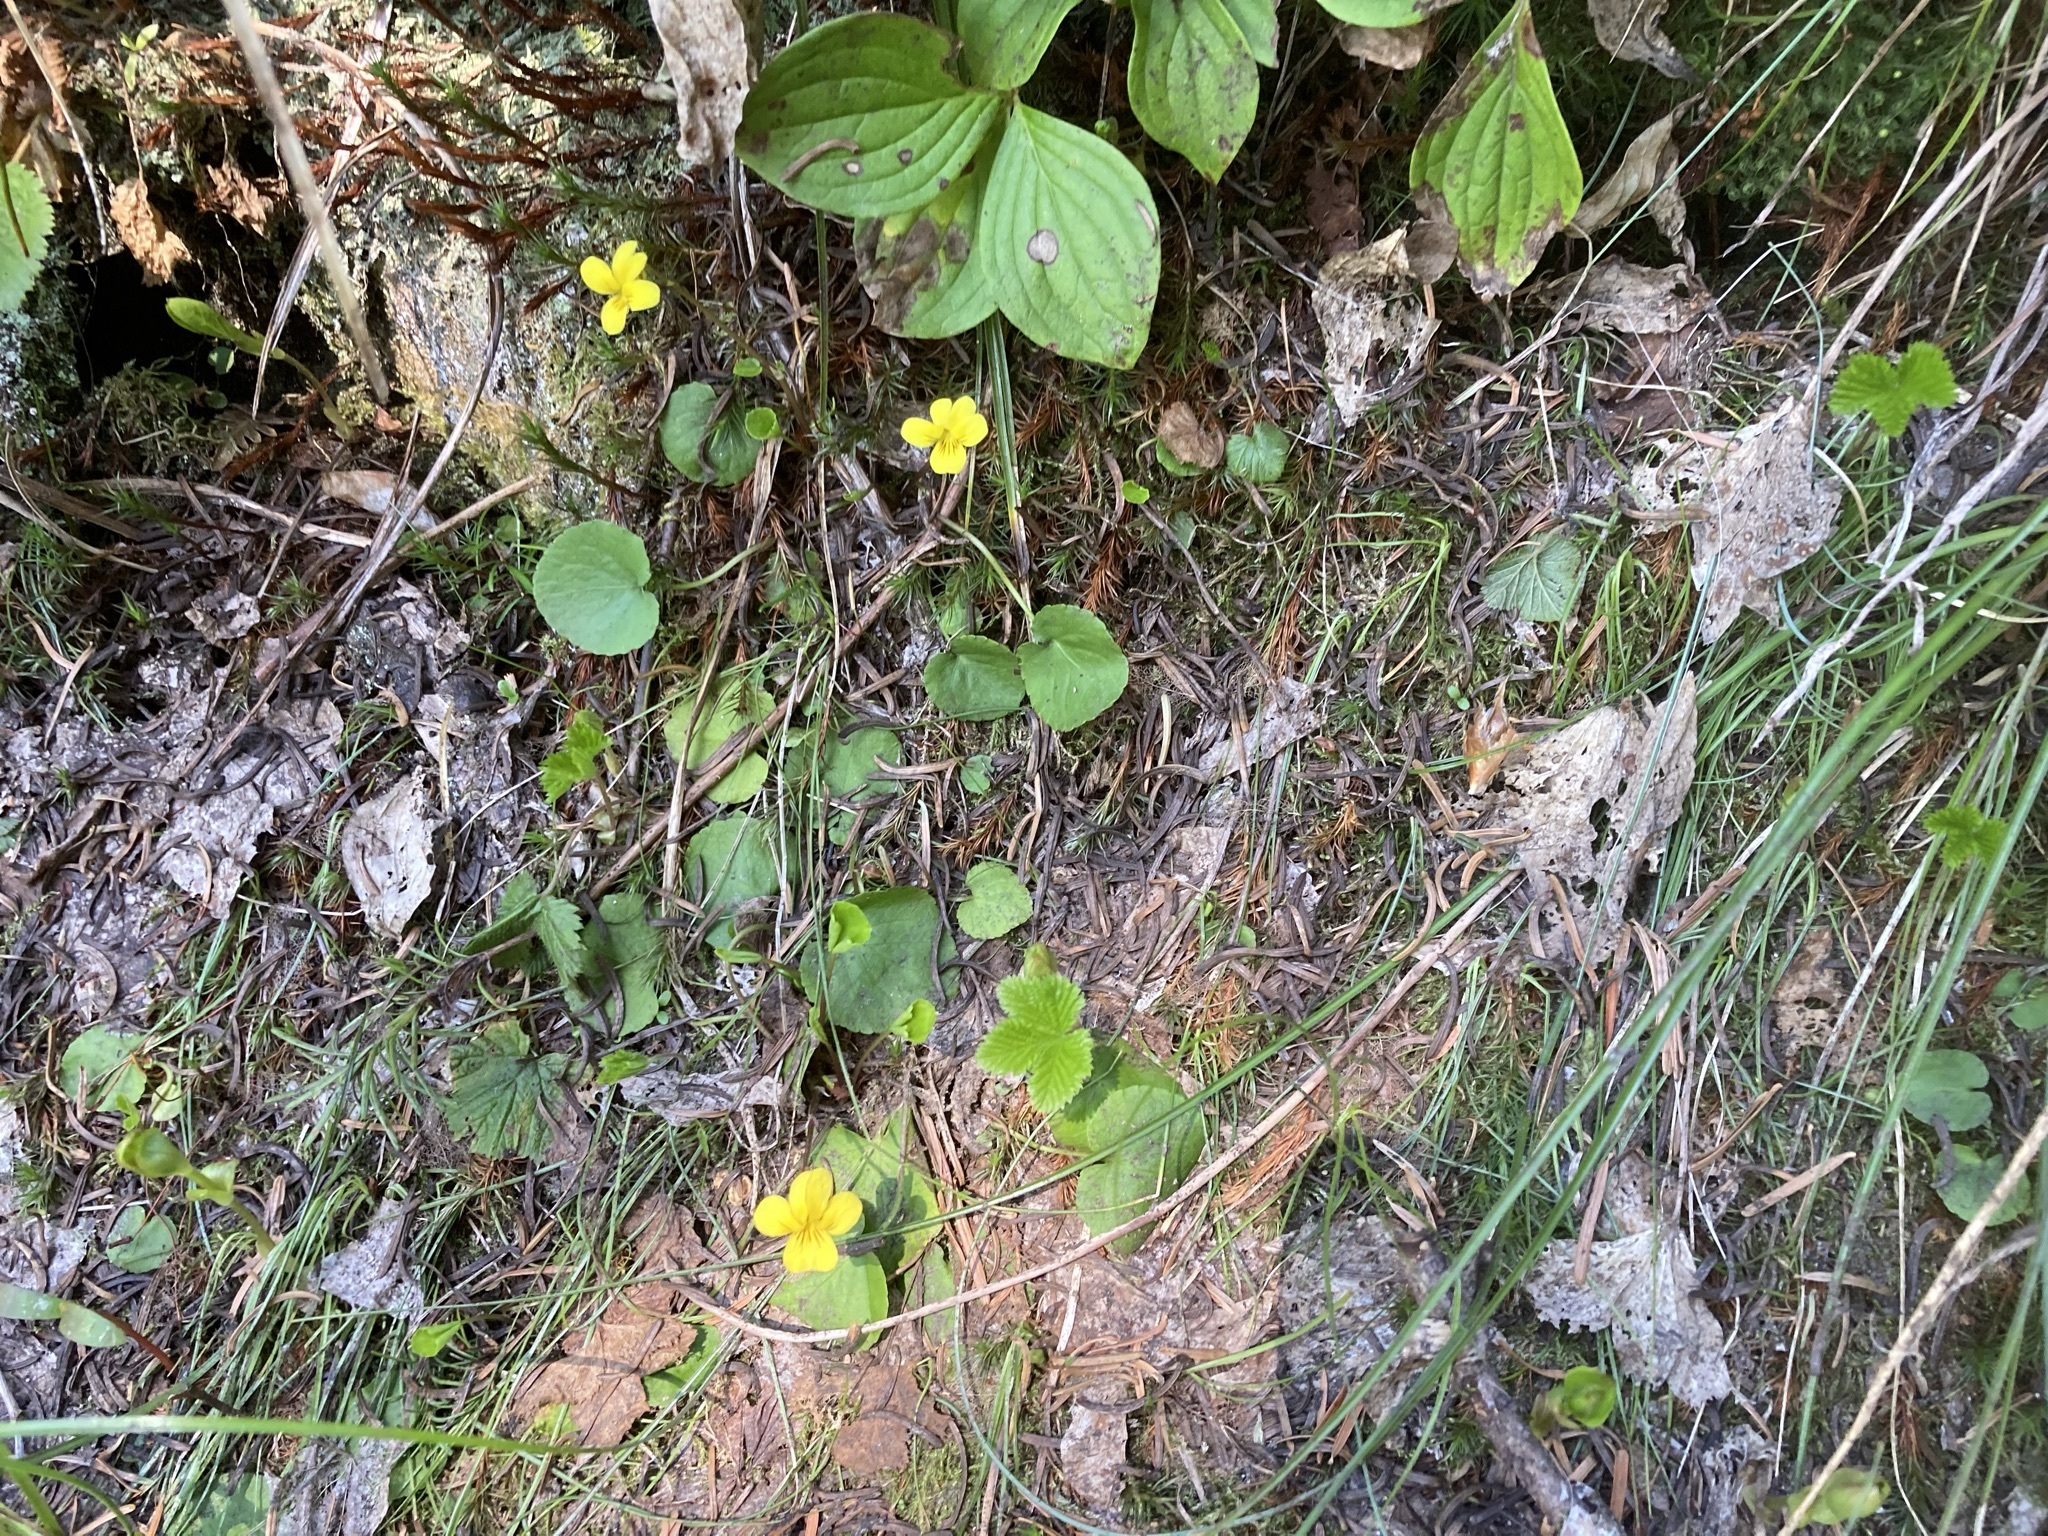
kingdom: Plantae
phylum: Tracheophyta
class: Magnoliopsida
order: Malpighiales
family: Violaceae
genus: Viola
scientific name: Viola orbiculata
